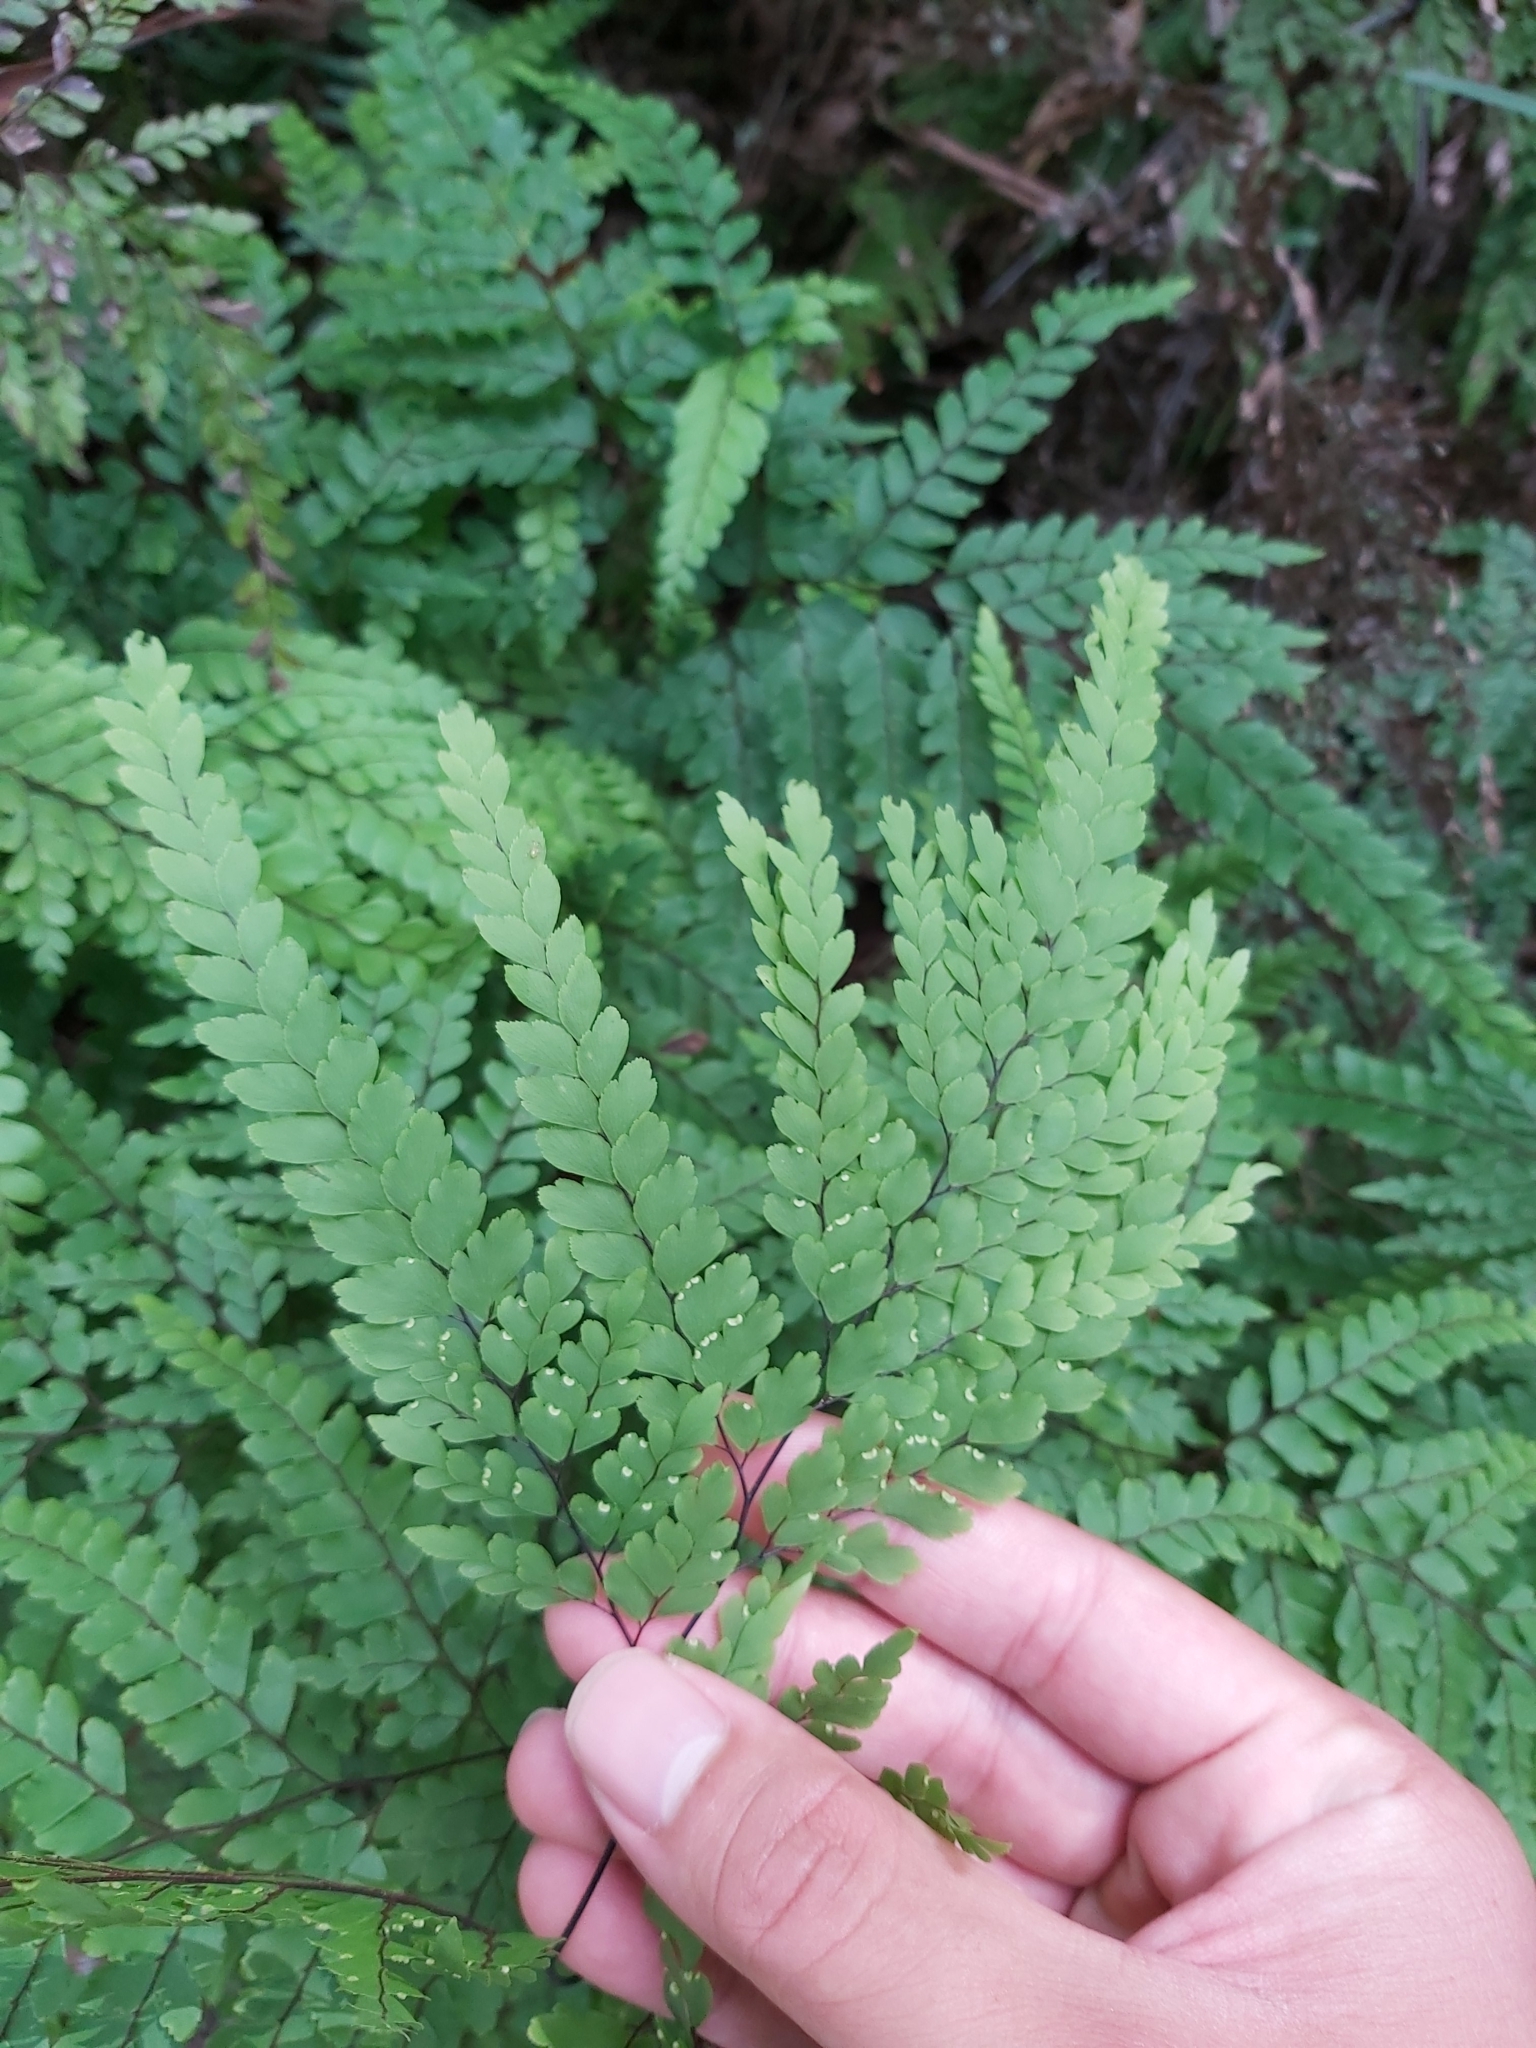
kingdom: Plantae
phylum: Tracheophyta
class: Polypodiopsida
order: Polypodiales
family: Pteridaceae
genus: Adiantum
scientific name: Adiantum formosum
